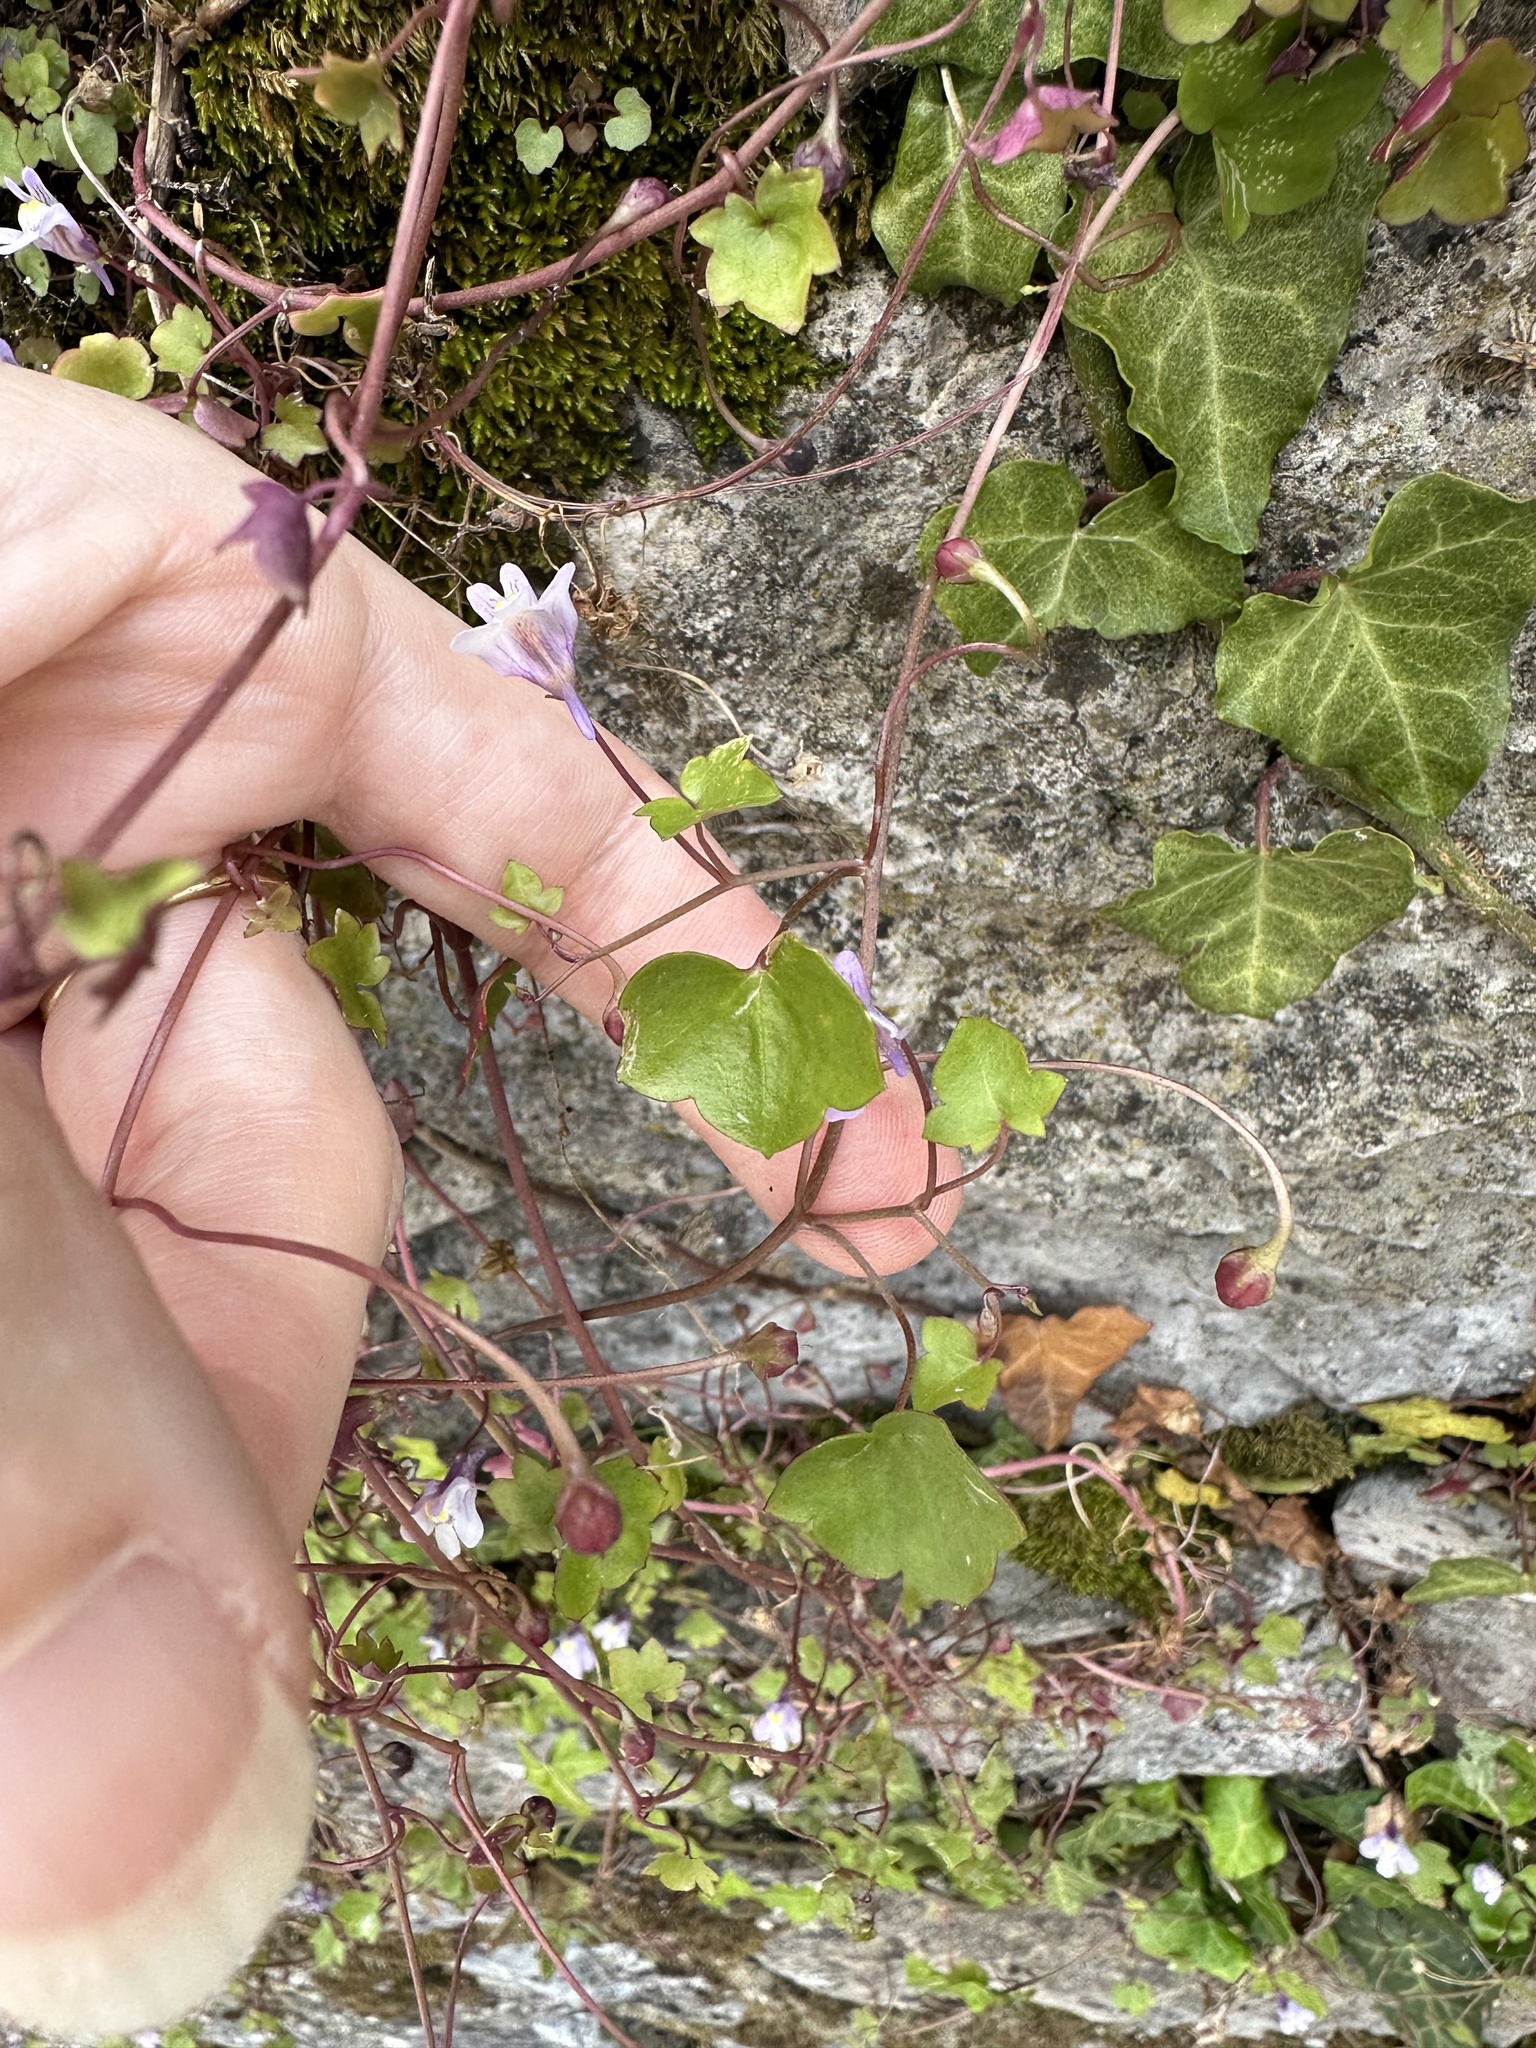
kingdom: Plantae
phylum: Tracheophyta
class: Magnoliopsida
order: Lamiales
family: Plantaginaceae
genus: Cymbalaria
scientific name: Cymbalaria muralis
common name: Ivy-leaved toadflax
